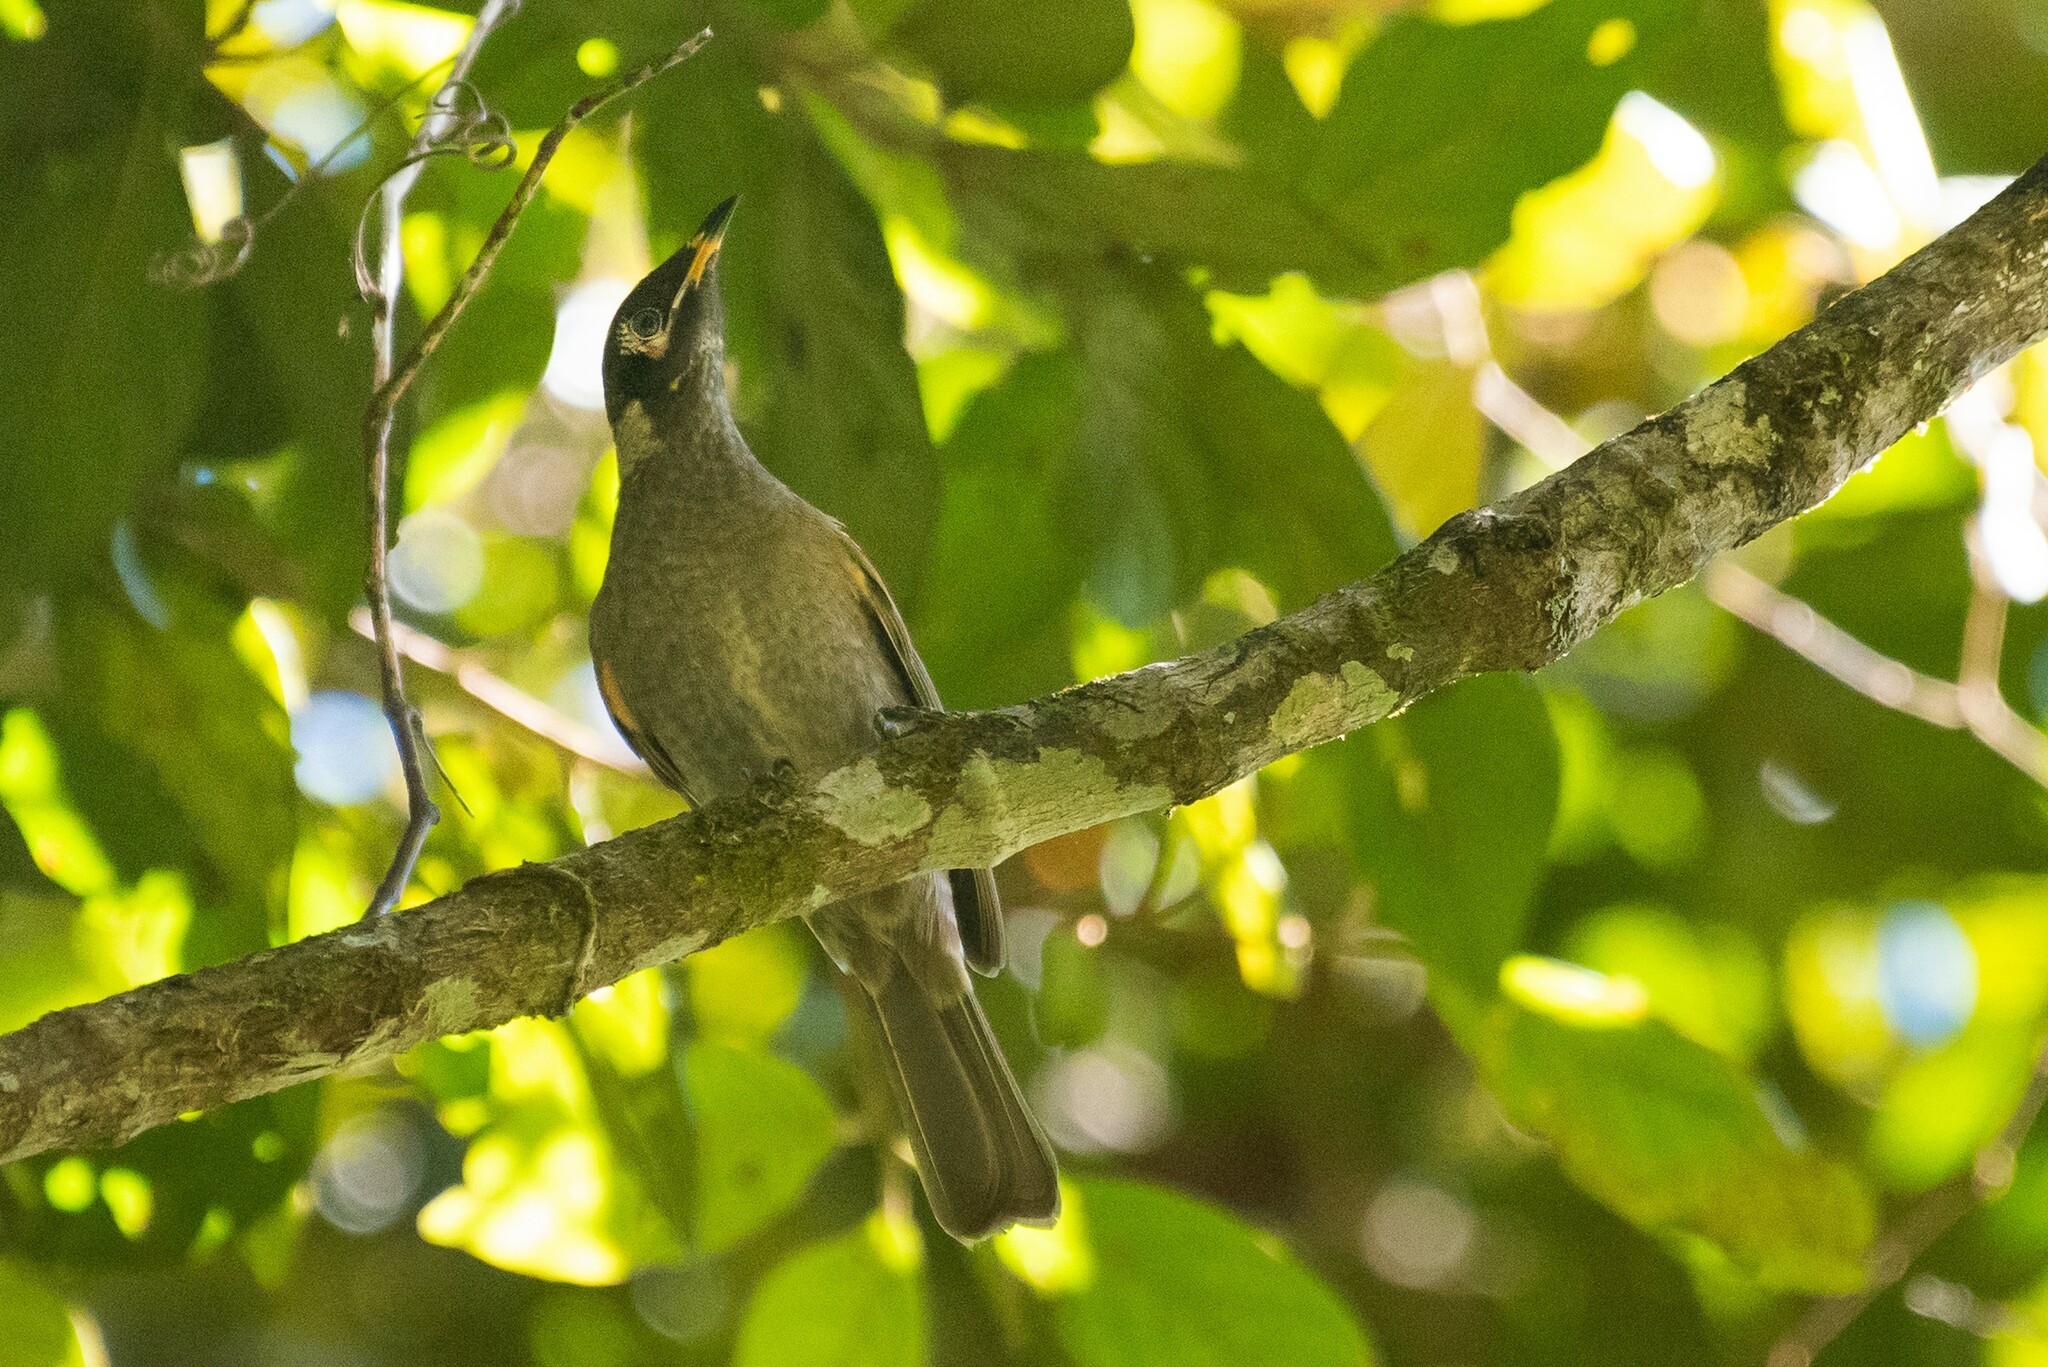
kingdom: Animalia
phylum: Chordata
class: Aves
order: Passeriformes
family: Meliphagidae
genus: Bolemoreus
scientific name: Bolemoreus frenatus
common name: Bridled honeyeater
